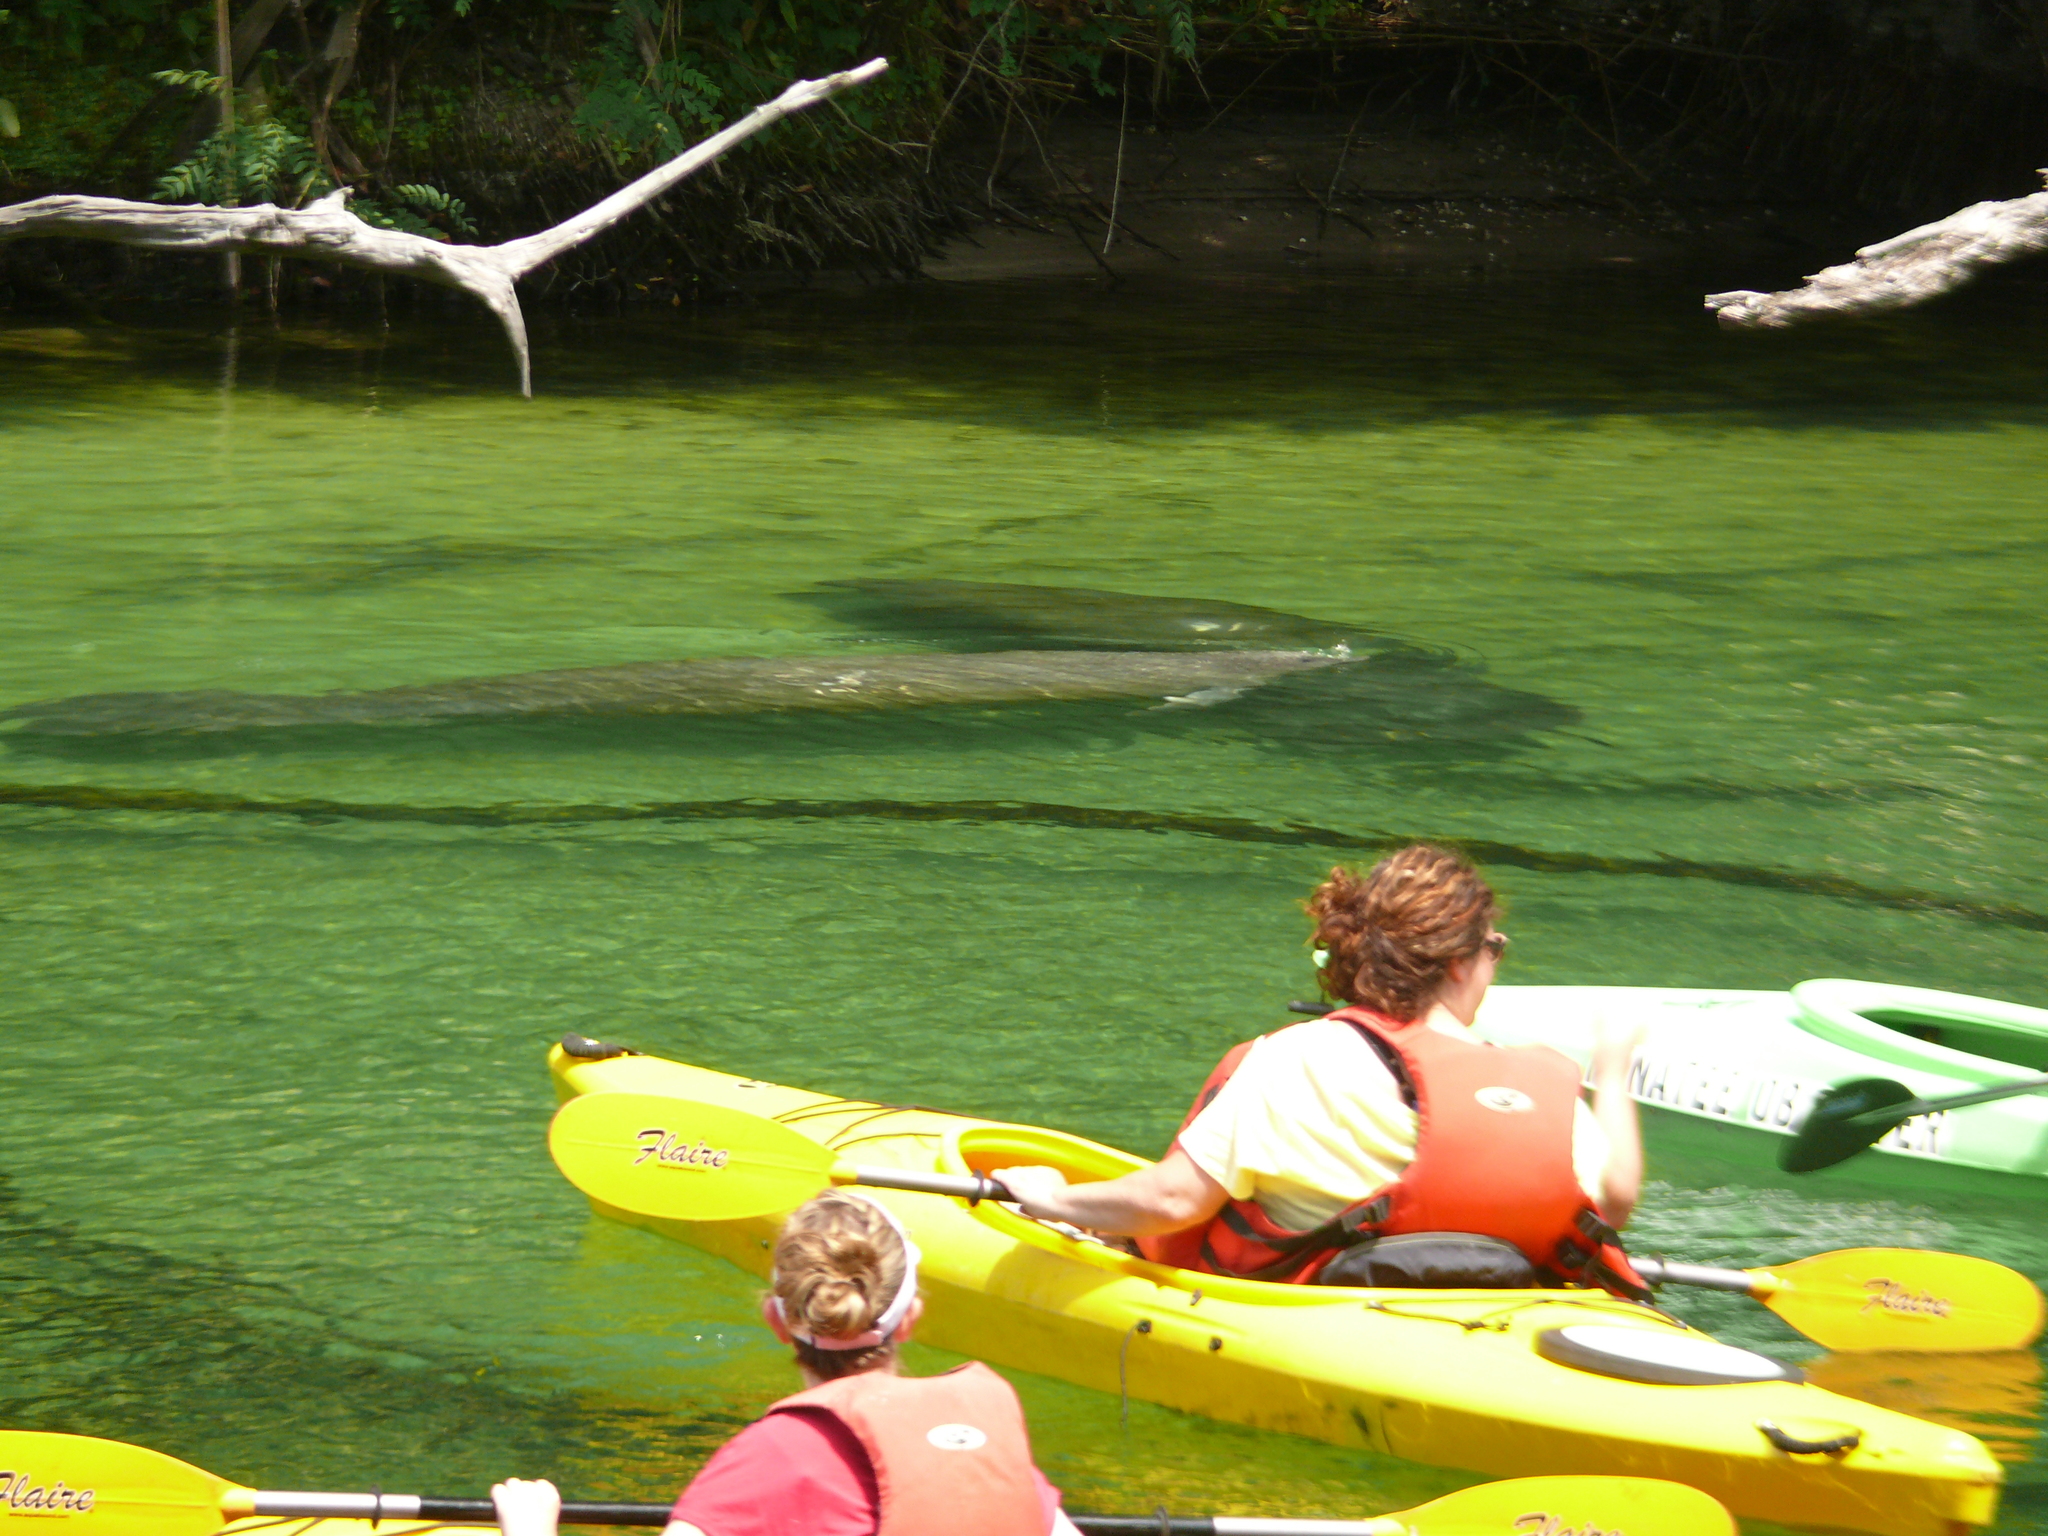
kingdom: Animalia
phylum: Chordata
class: Mammalia
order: Sirenia
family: Trichechidae
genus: Trichechus
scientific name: Trichechus manatus
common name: West indian manatee
